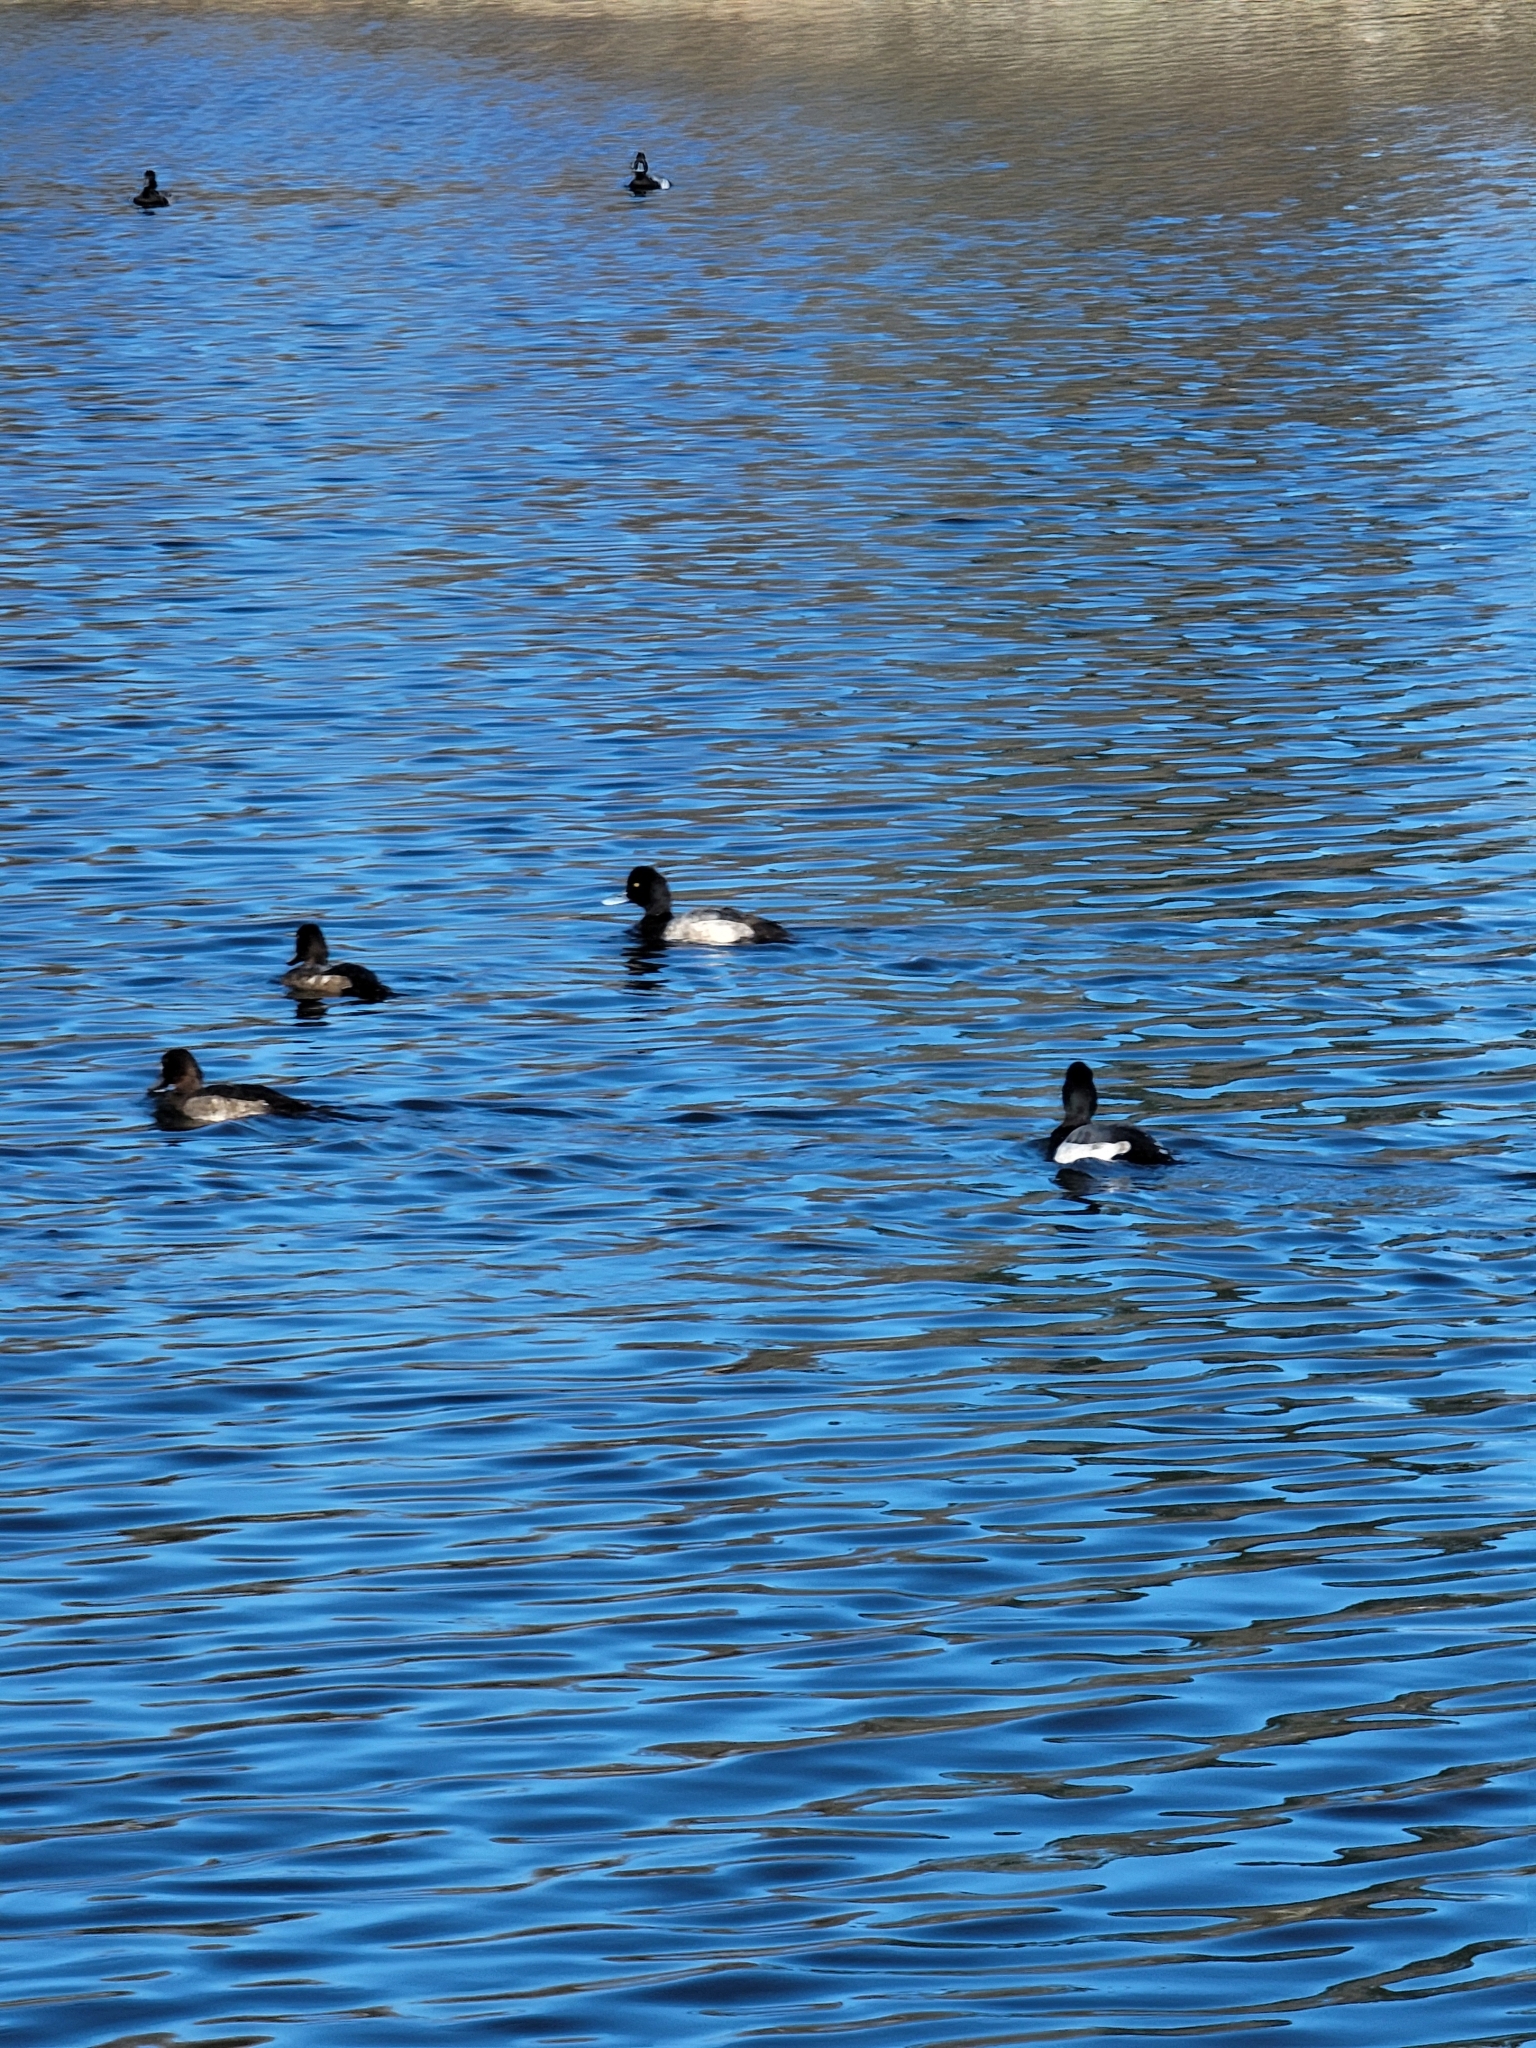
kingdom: Animalia
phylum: Chordata
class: Aves
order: Anseriformes
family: Anatidae
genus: Aythya
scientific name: Aythya affinis
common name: Lesser scaup
